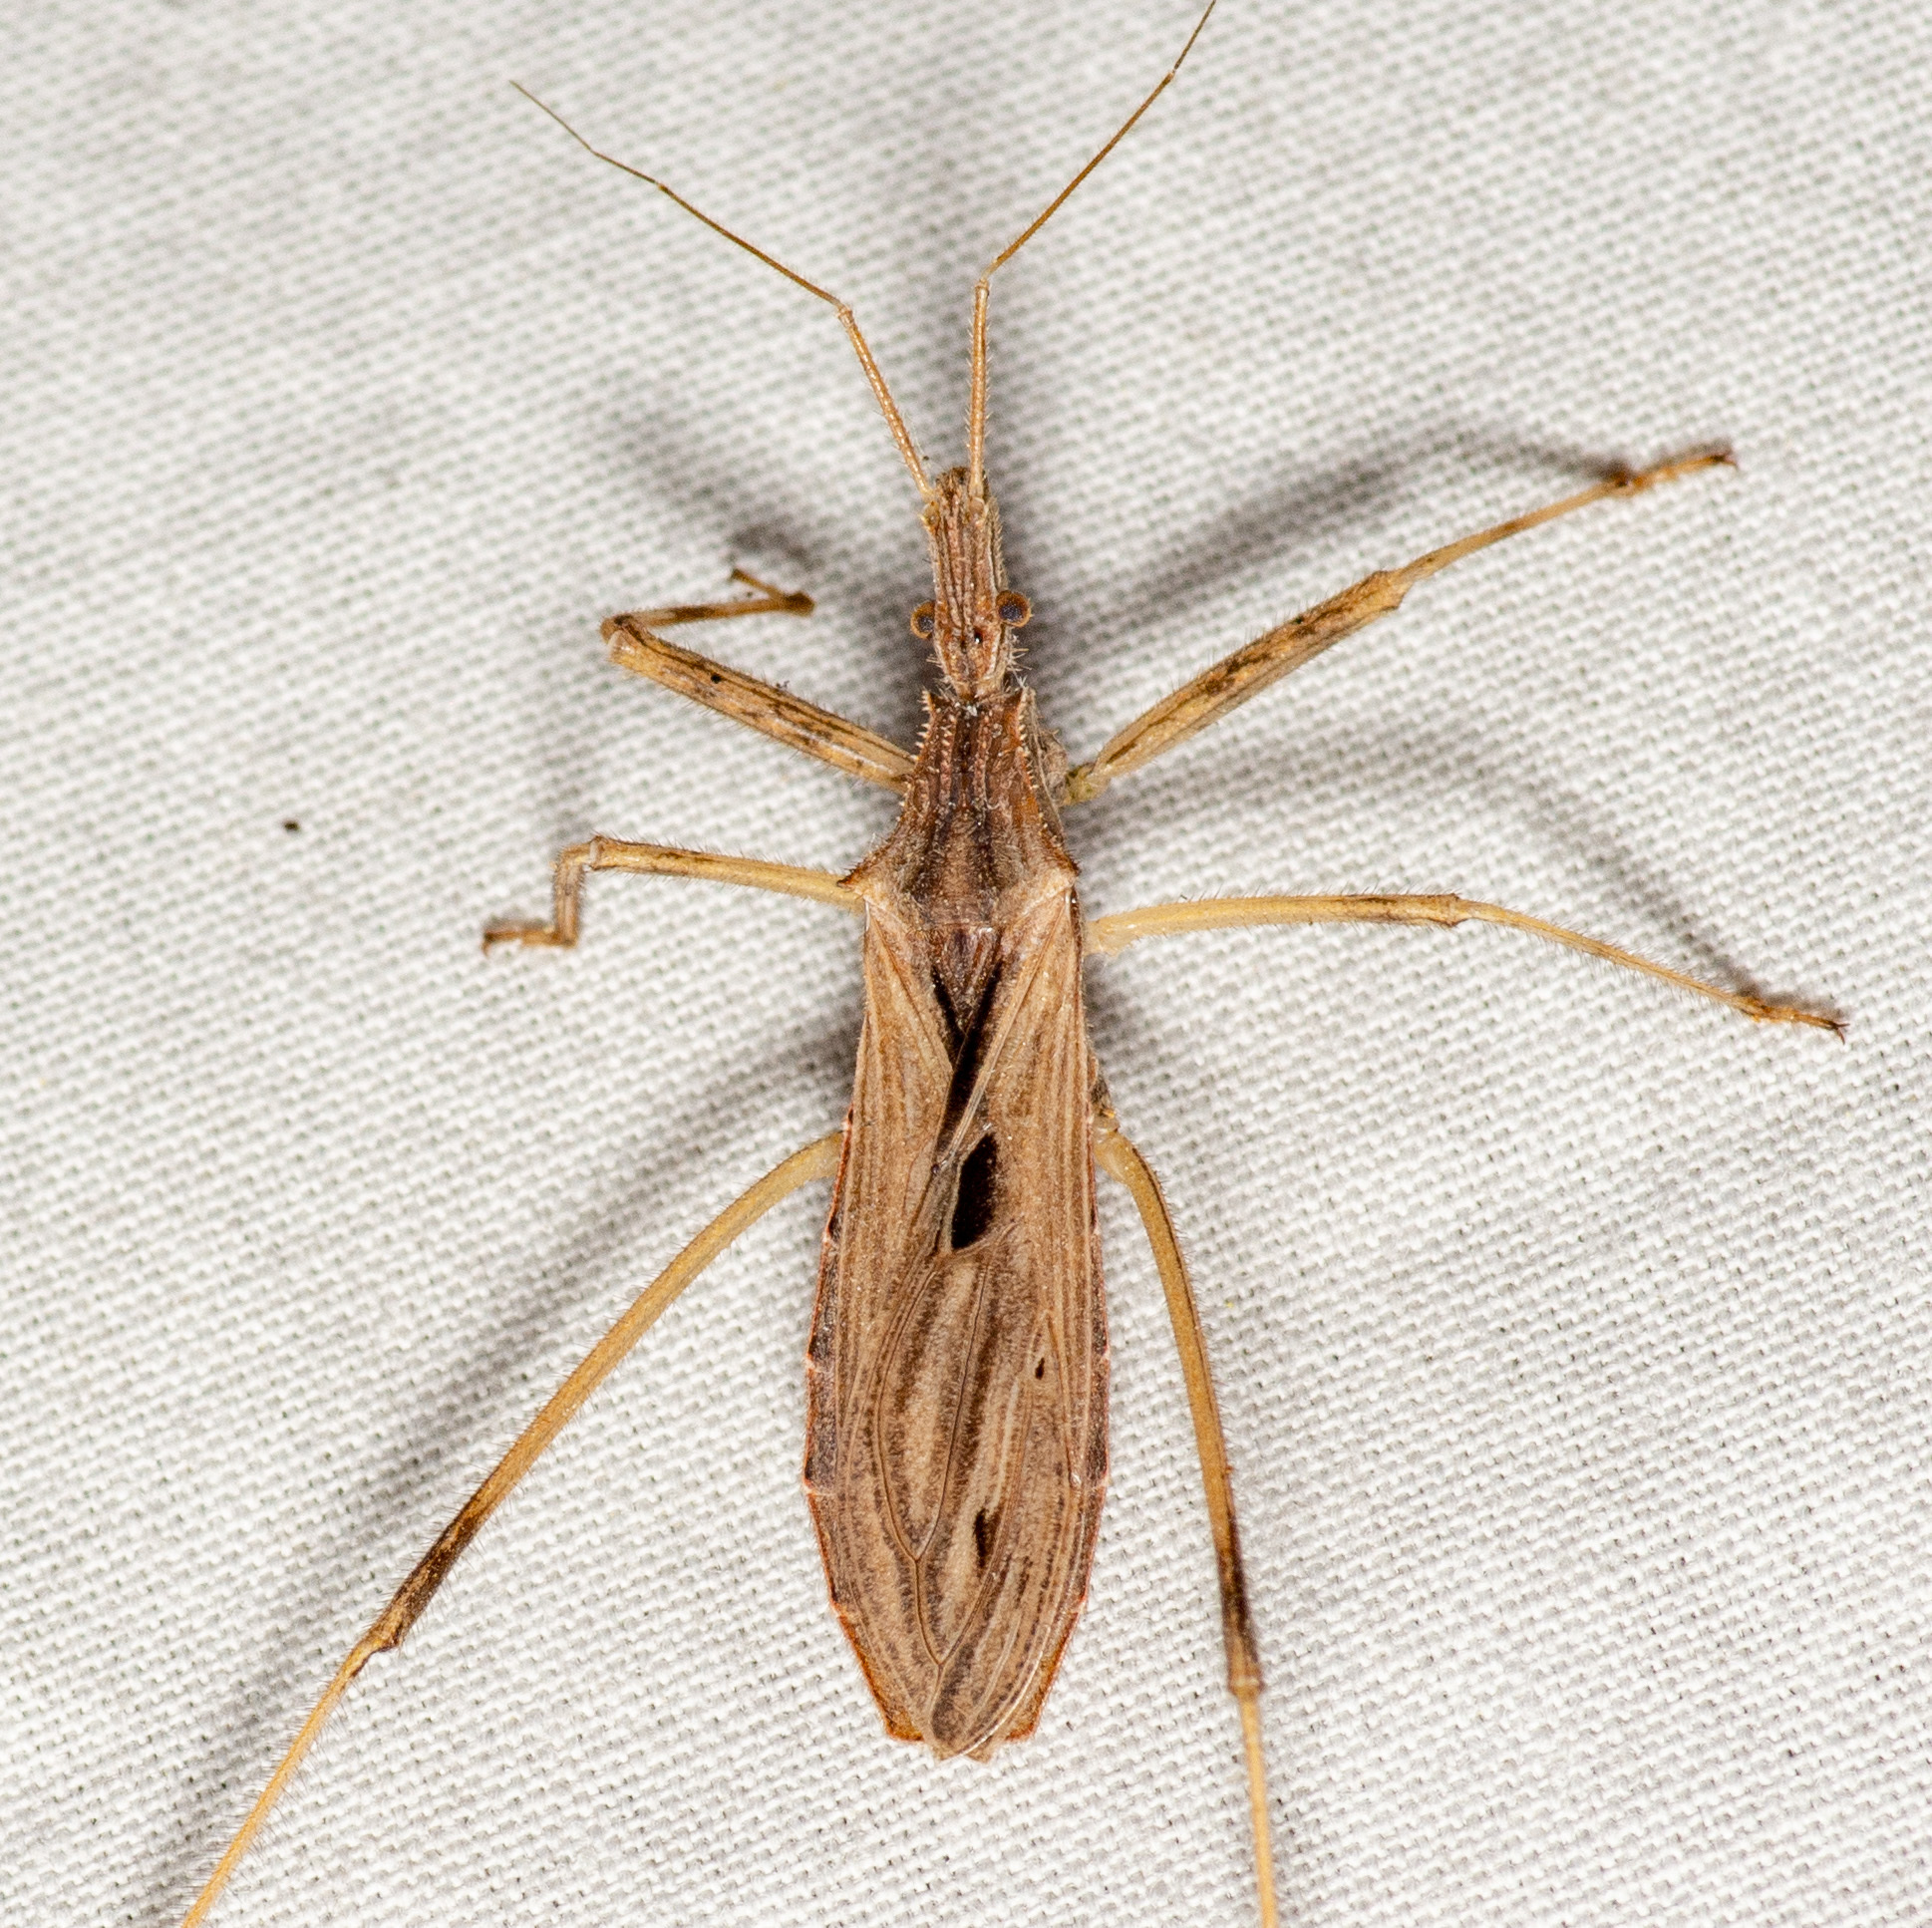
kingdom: Animalia
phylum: Arthropoda
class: Insecta
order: Hemiptera
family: Reduviidae
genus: Stenopoda
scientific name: Stenopoda spinulosa
